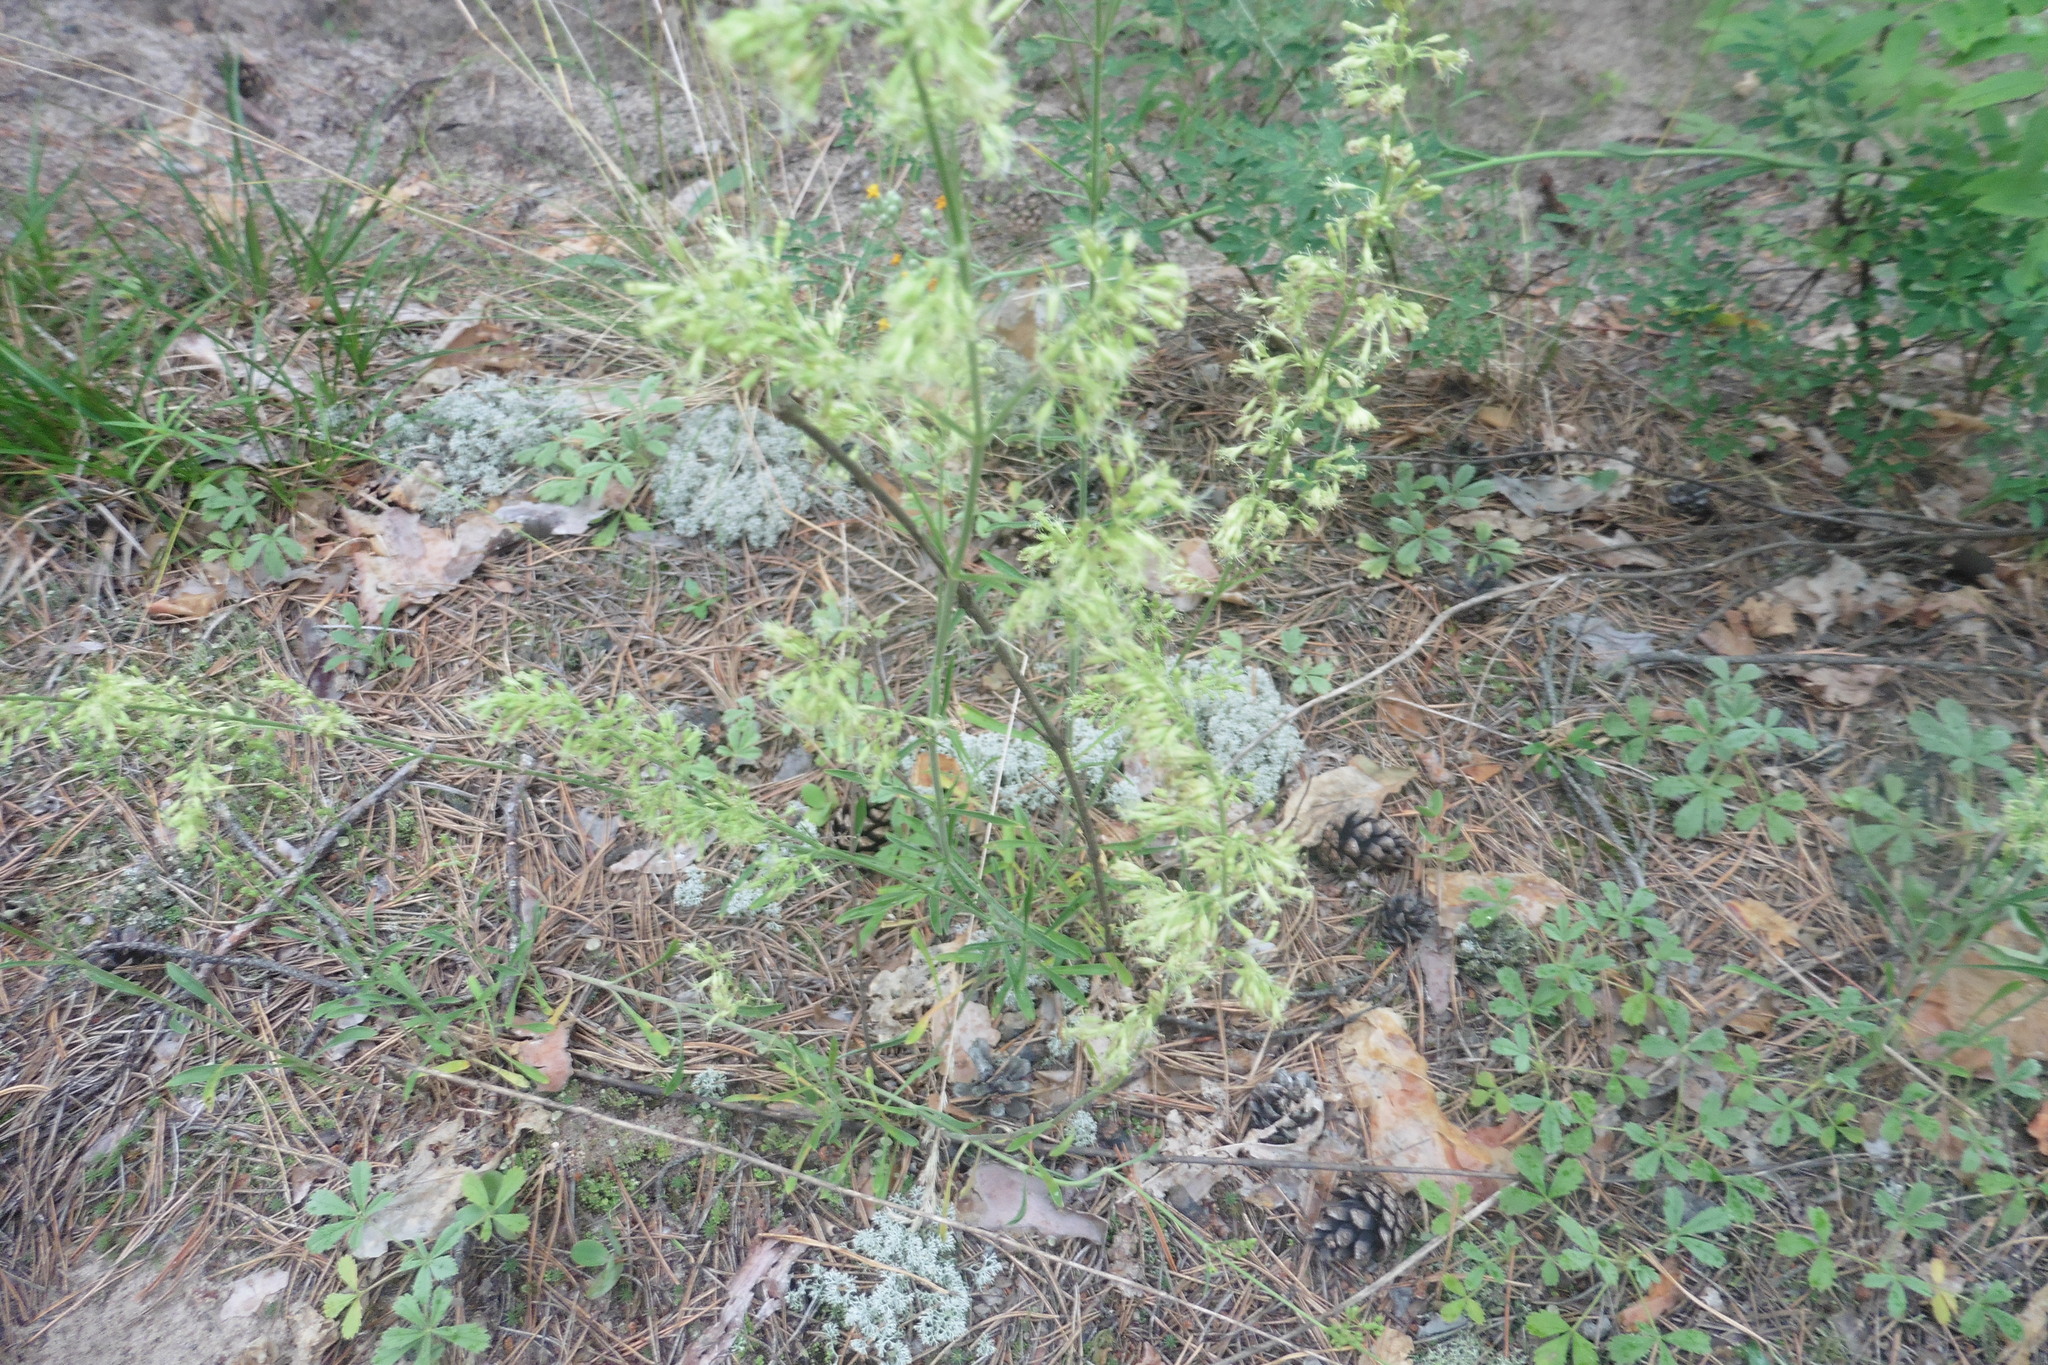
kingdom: Plantae
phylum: Tracheophyta
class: Magnoliopsida
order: Caryophyllales
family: Caryophyllaceae
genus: Silene
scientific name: Silene borysthenica
